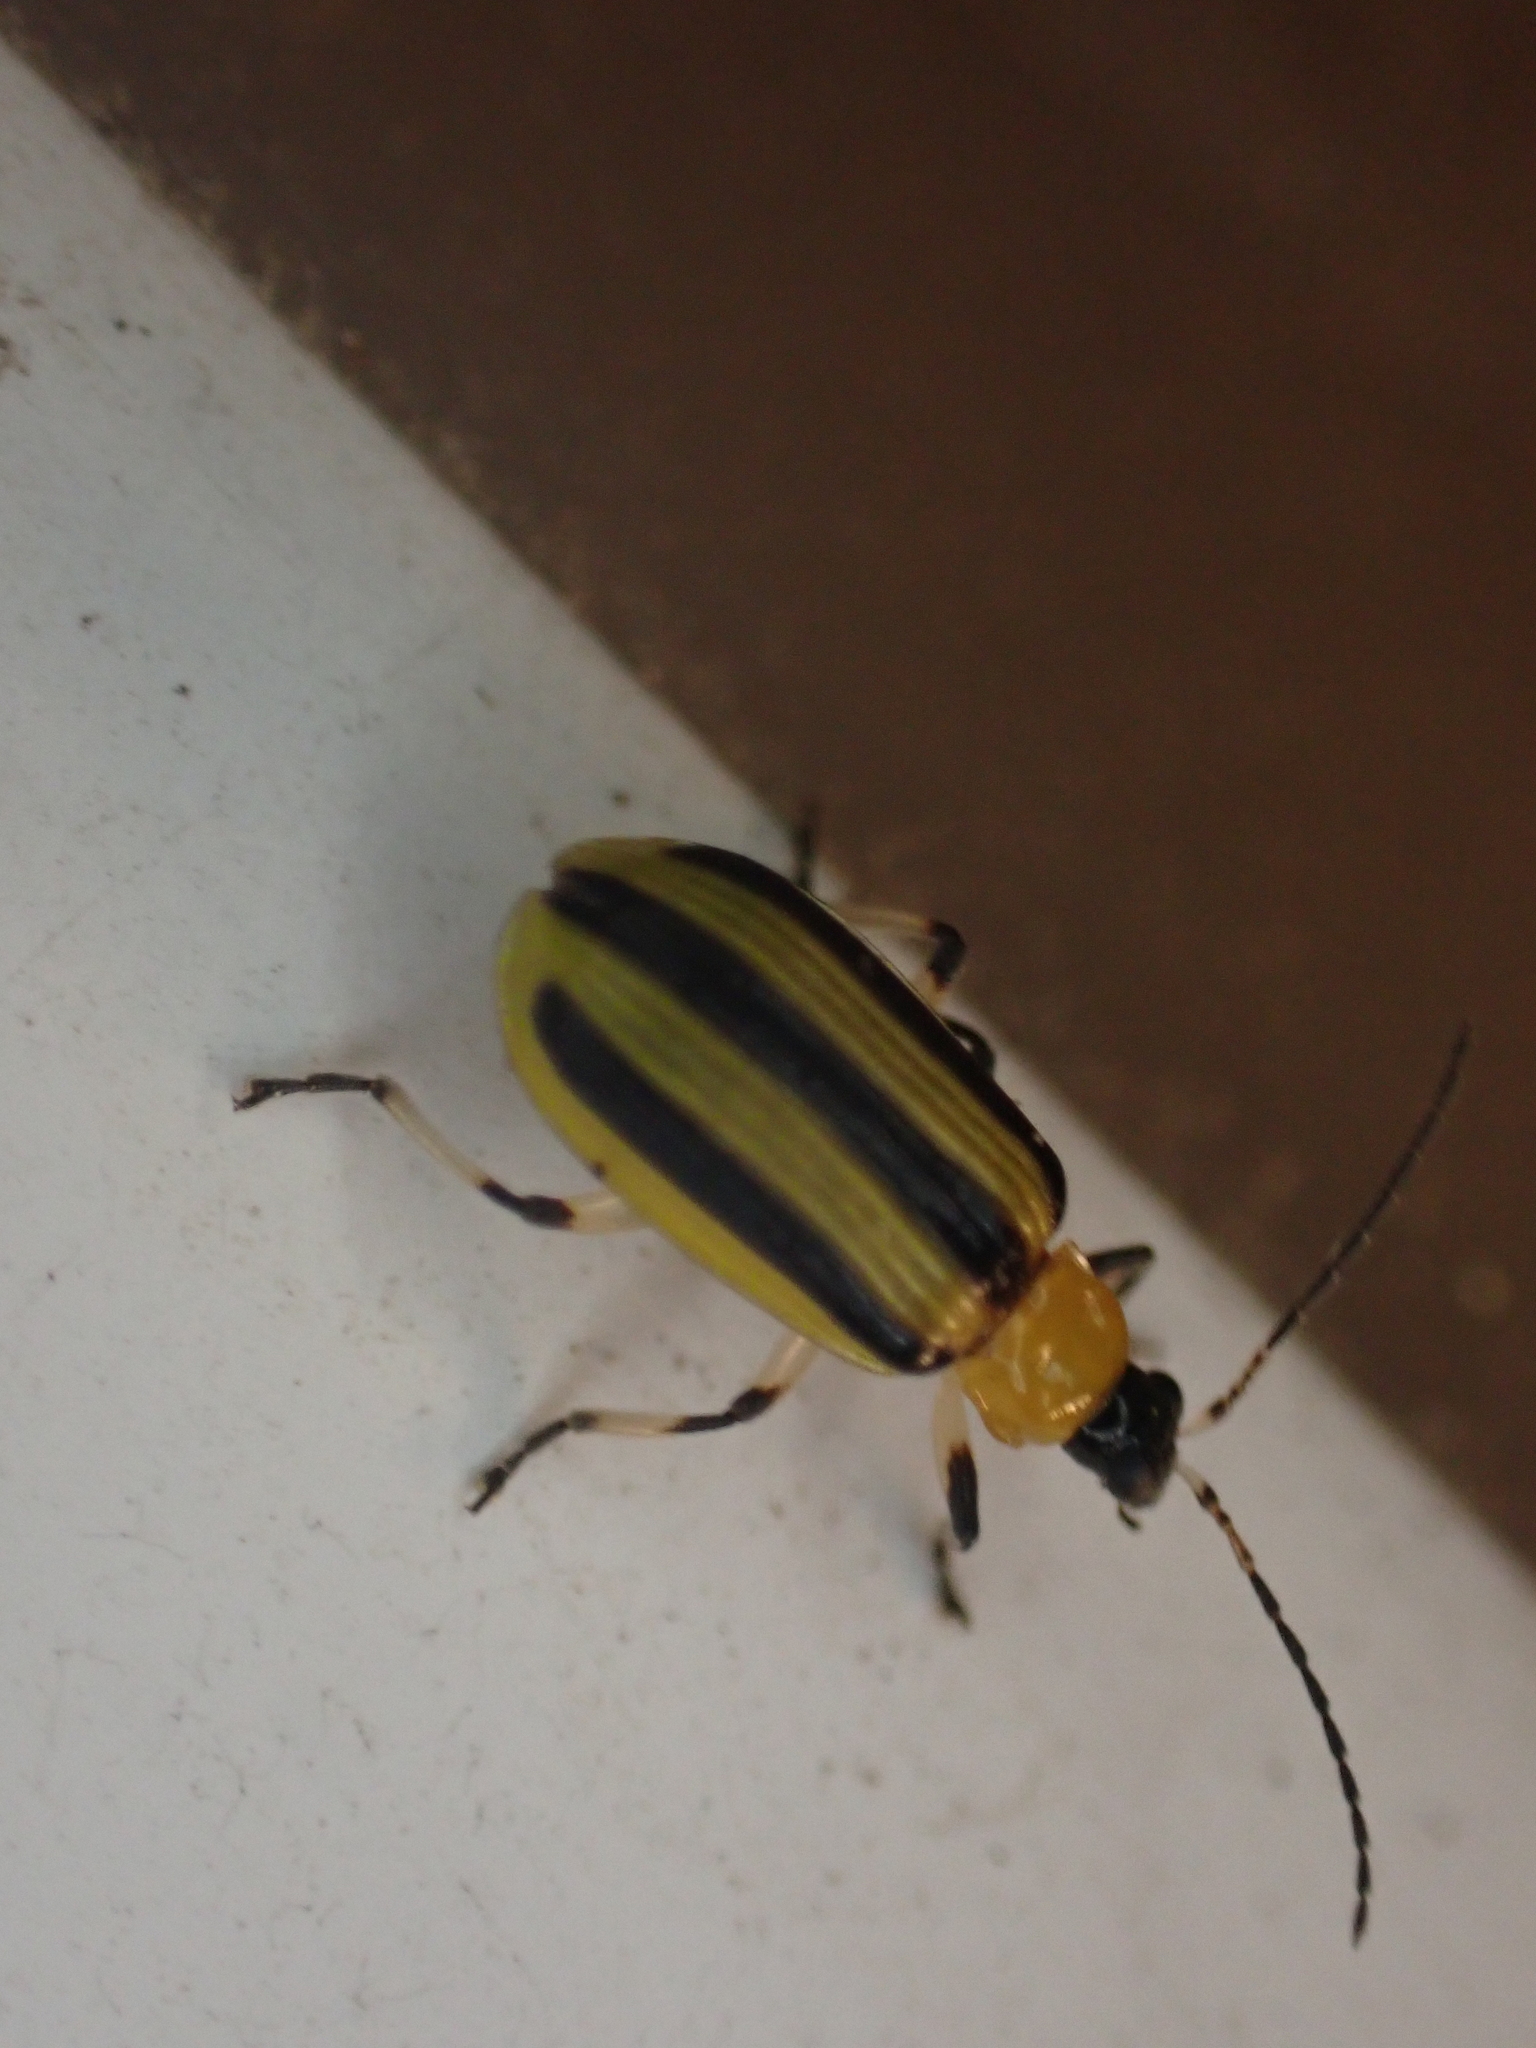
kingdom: Animalia
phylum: Arthropoda
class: Insecta
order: Coleoptera
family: Chrysomelidae
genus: Acalymma
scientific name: Acalymma vittatum
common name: Striped cucumber beetle
